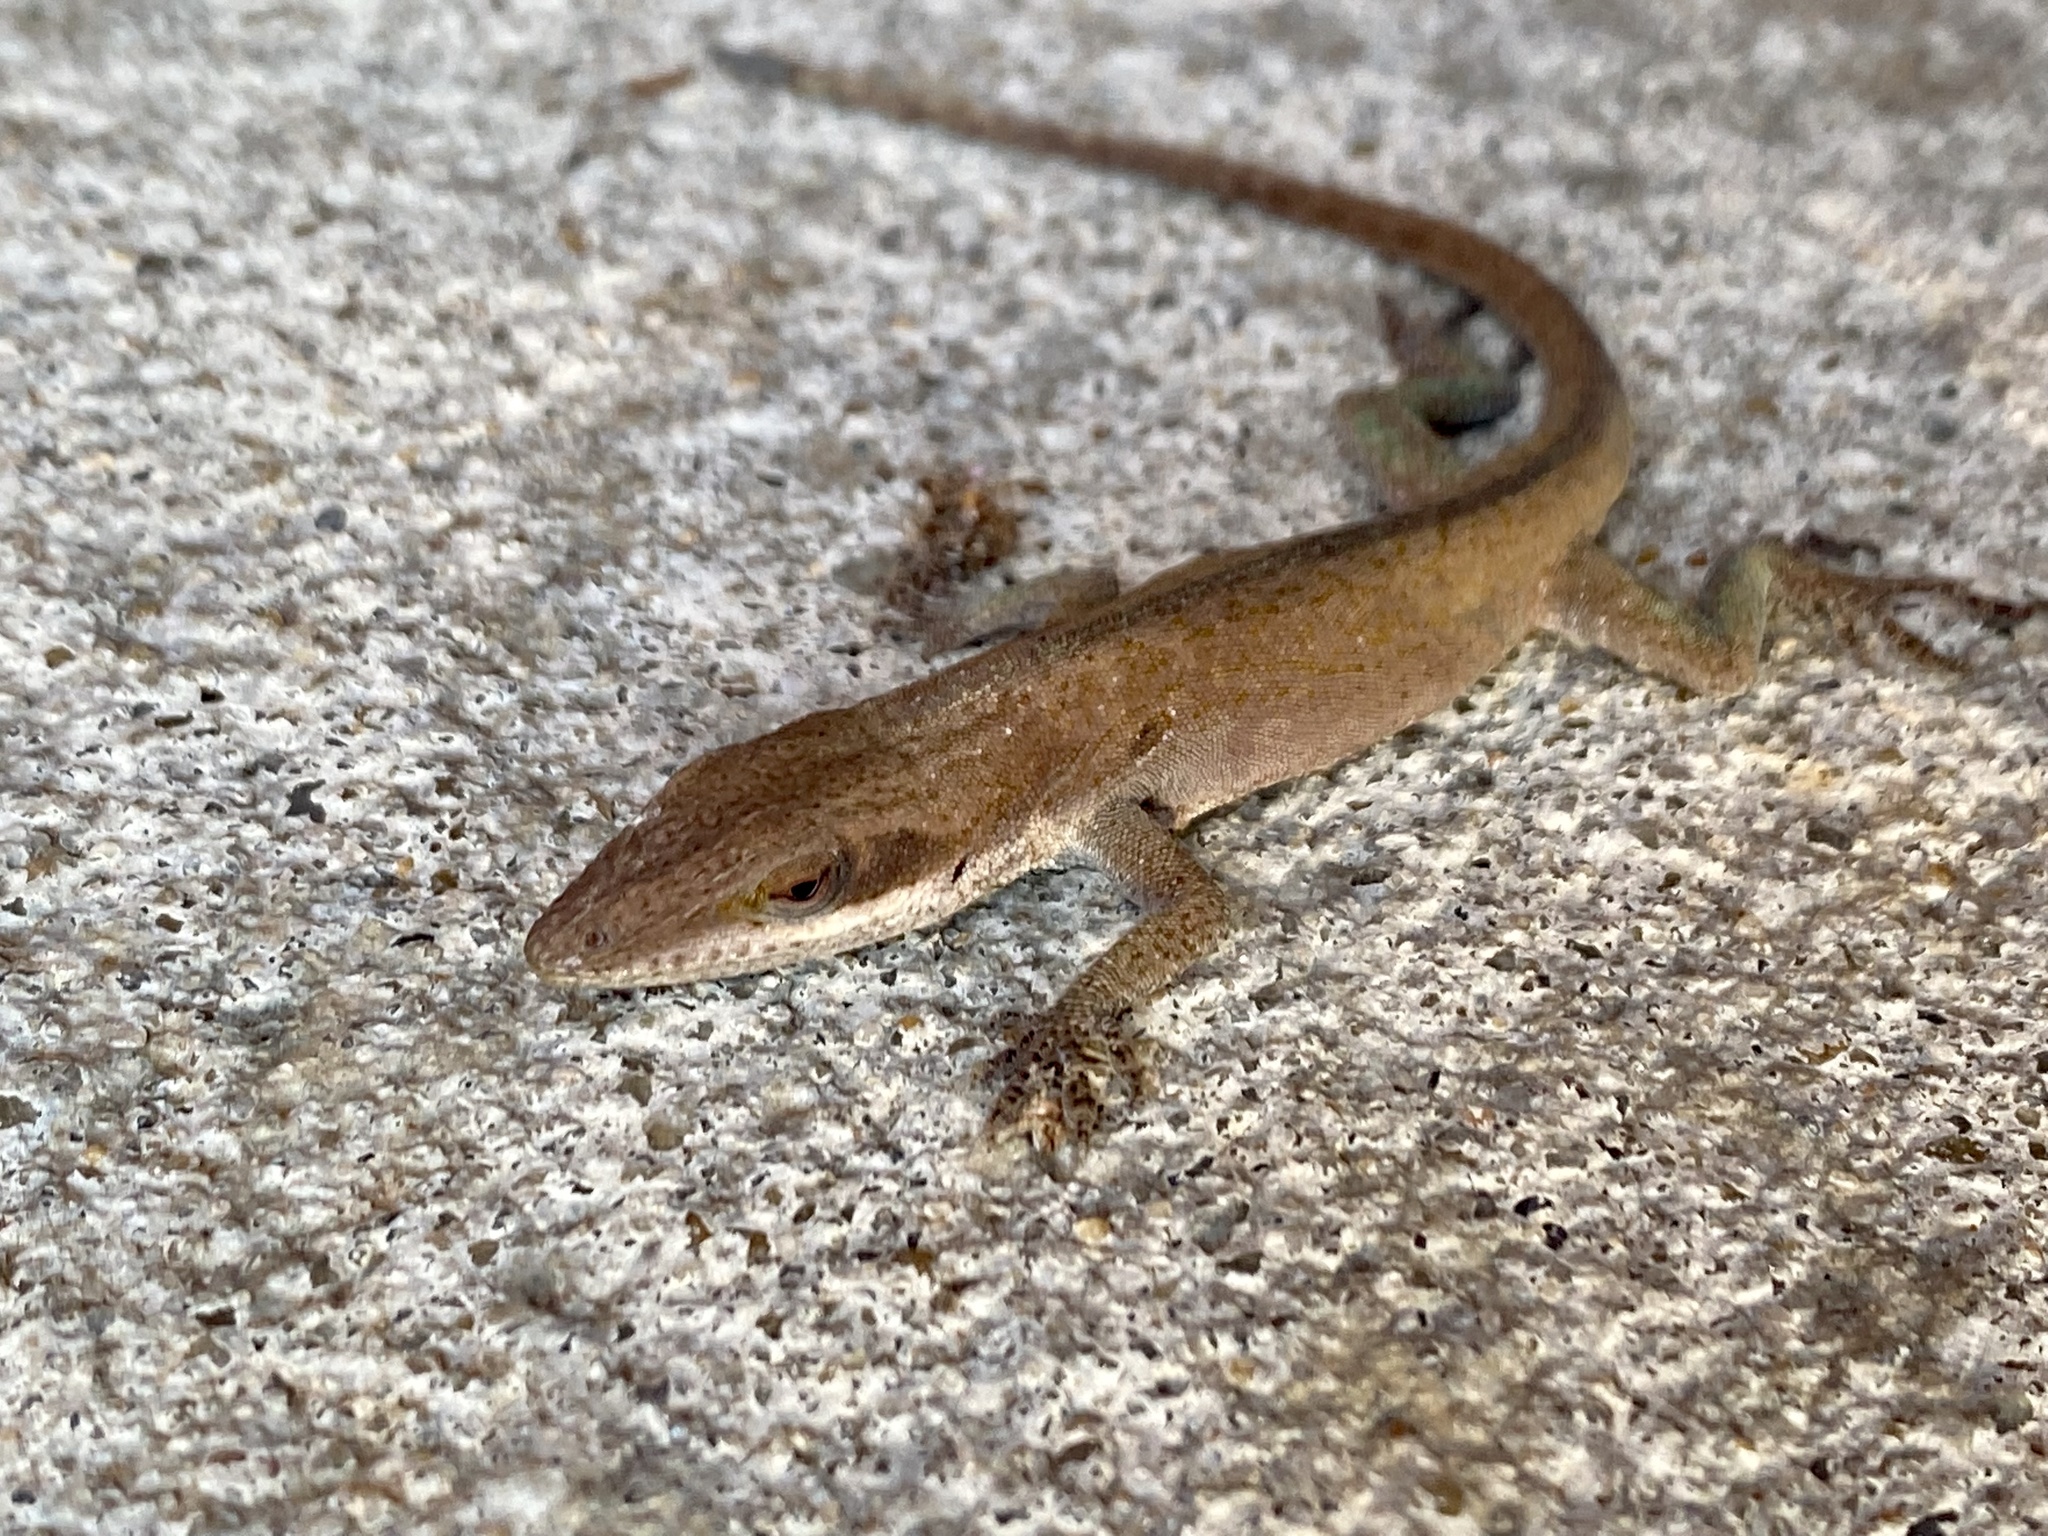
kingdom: Animalia
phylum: Chordata
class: Squamata
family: Dactyloidae
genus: Anolis
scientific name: Anolis carolinensis
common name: Green anole
